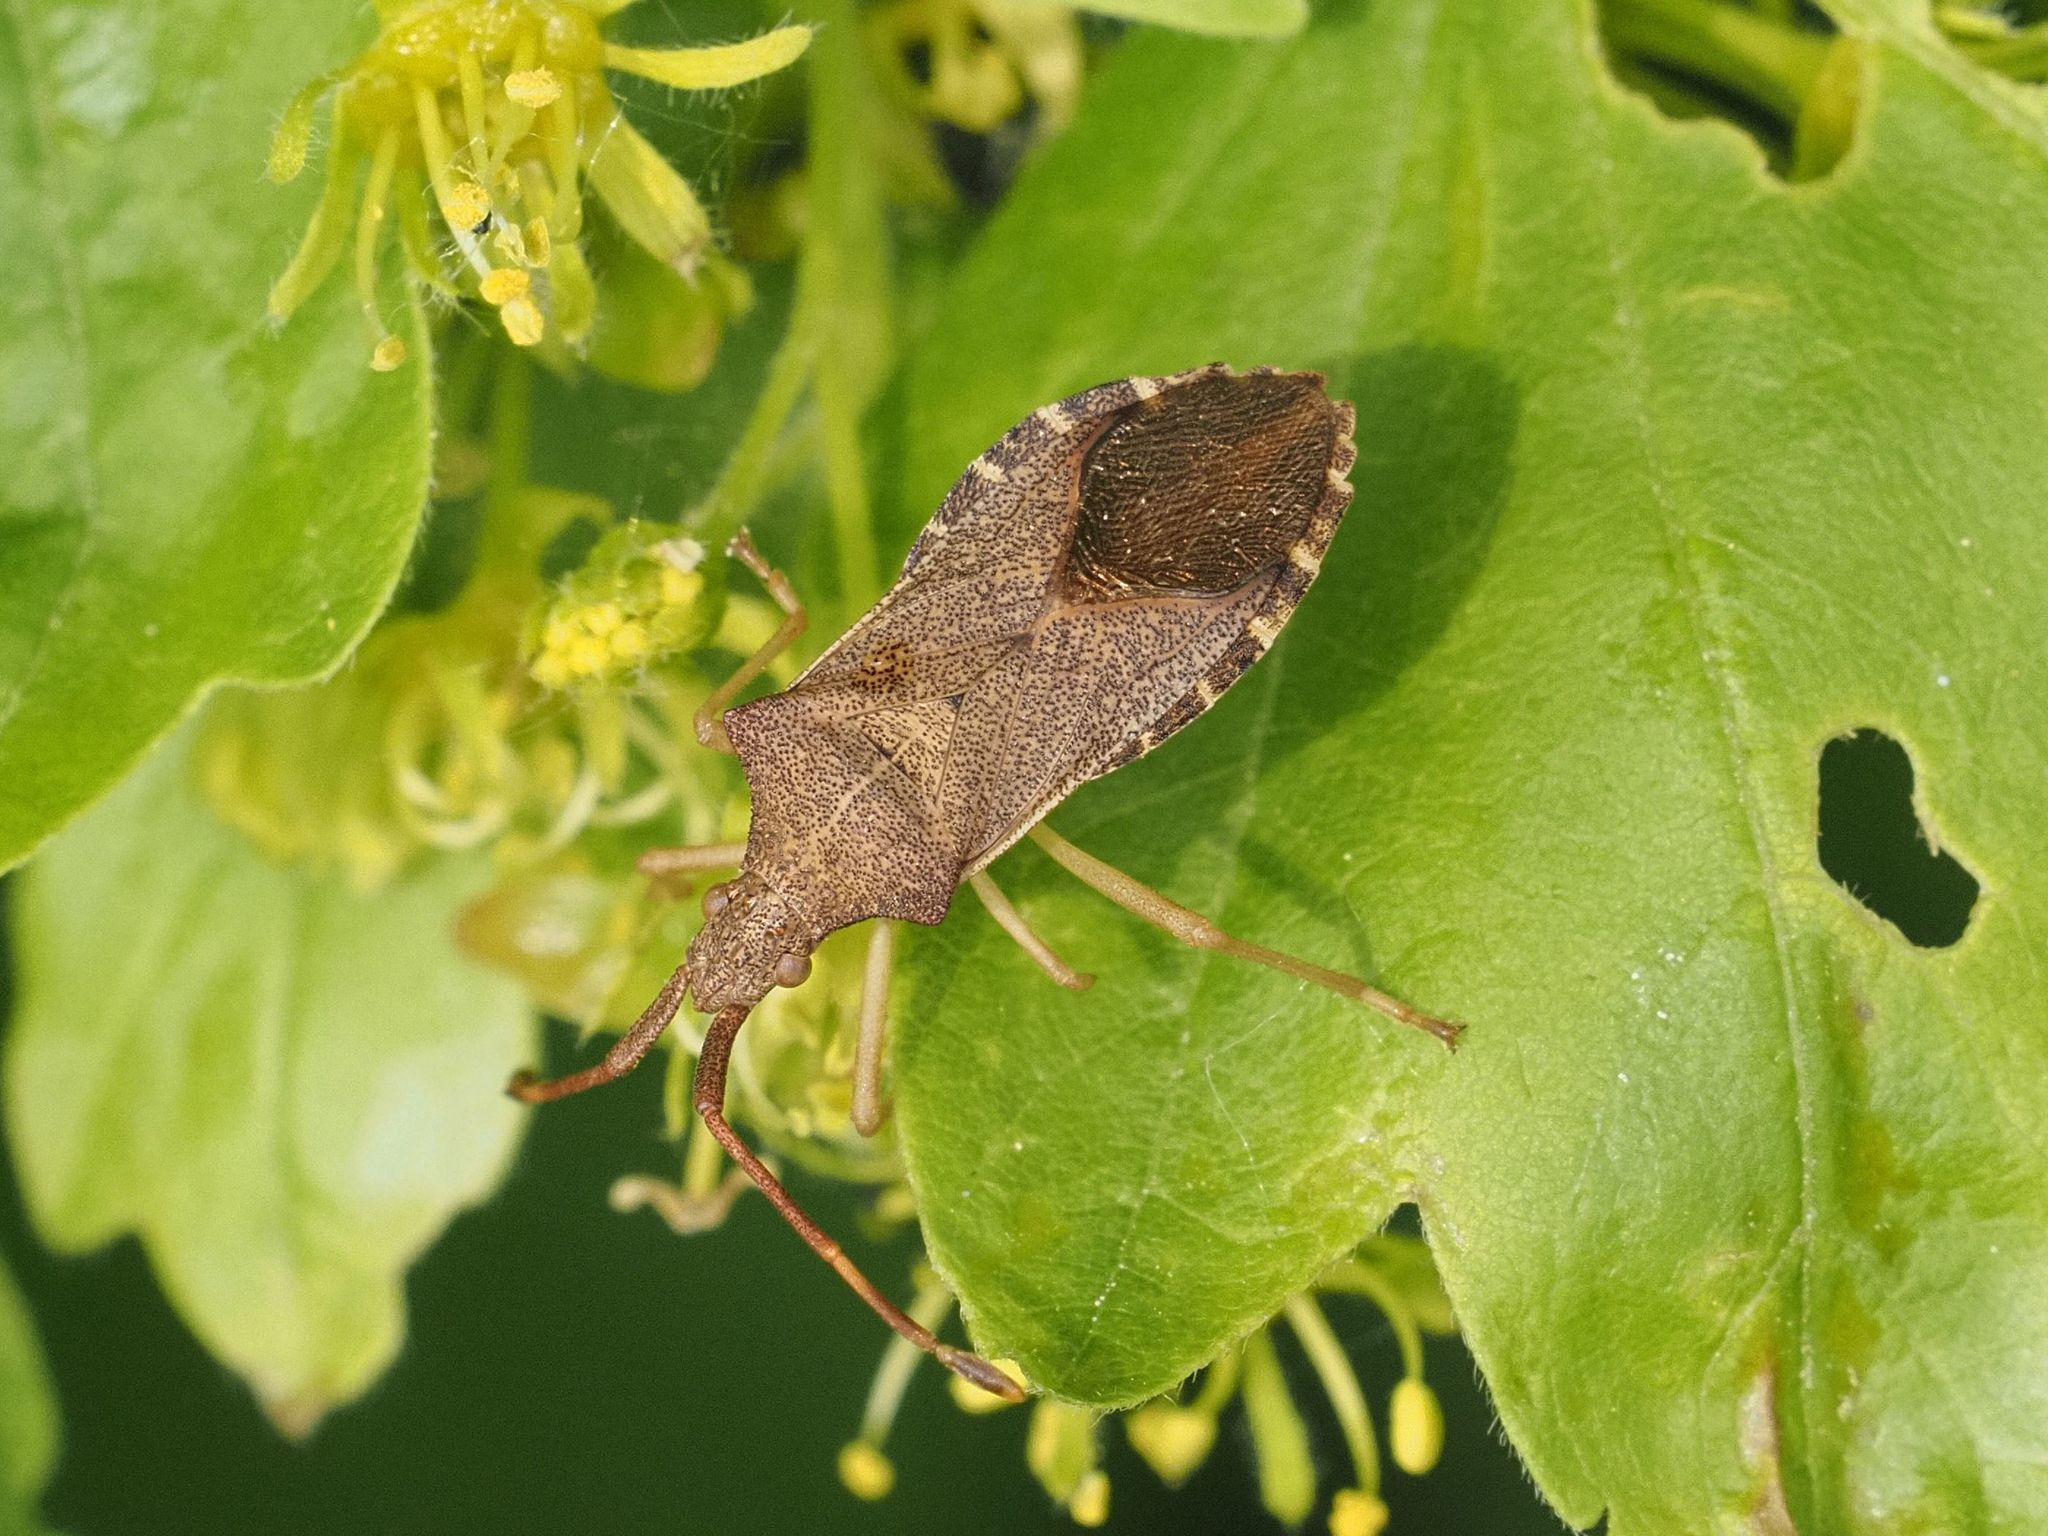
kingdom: Animalia
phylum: Arthropoda
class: Insecta
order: Hemiptera
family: Coreidae
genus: Gonocerus
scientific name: Gonocerus acuteangulatus
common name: Box bug
